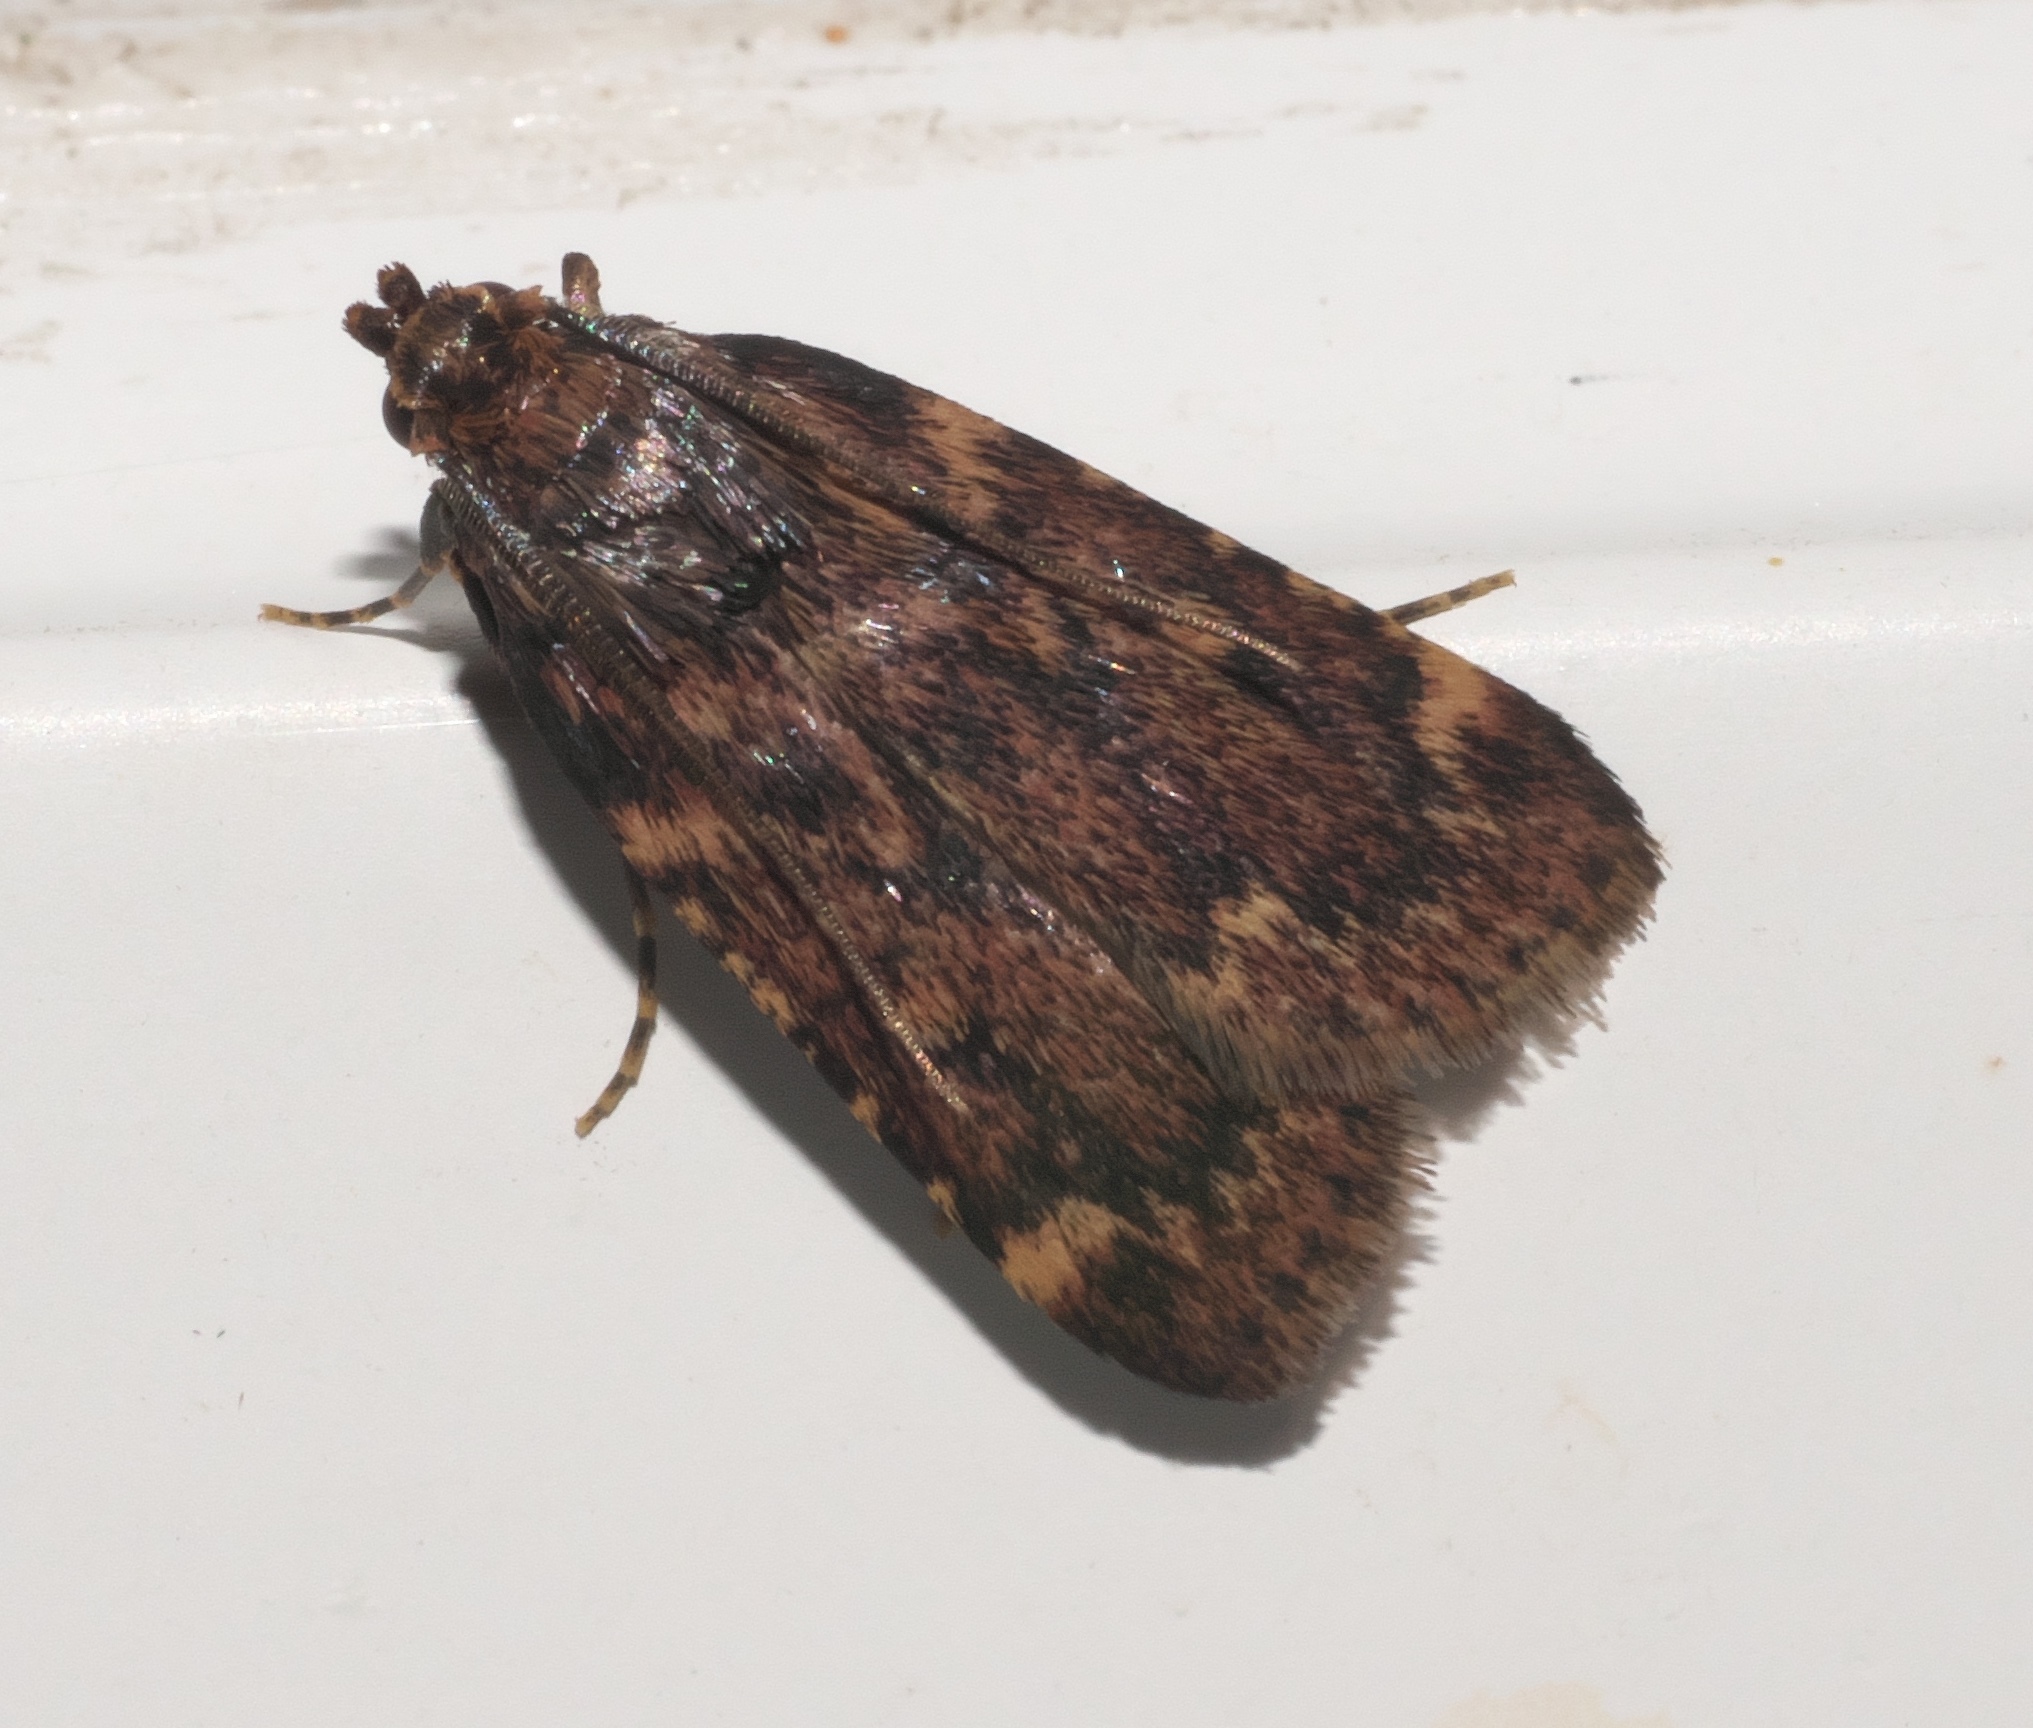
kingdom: Animalia
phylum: Arthropoda
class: Insecta
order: Lepidoptera
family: Pyralidae
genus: Aglossa
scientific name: Aglossa cuprina
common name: Grease moth
